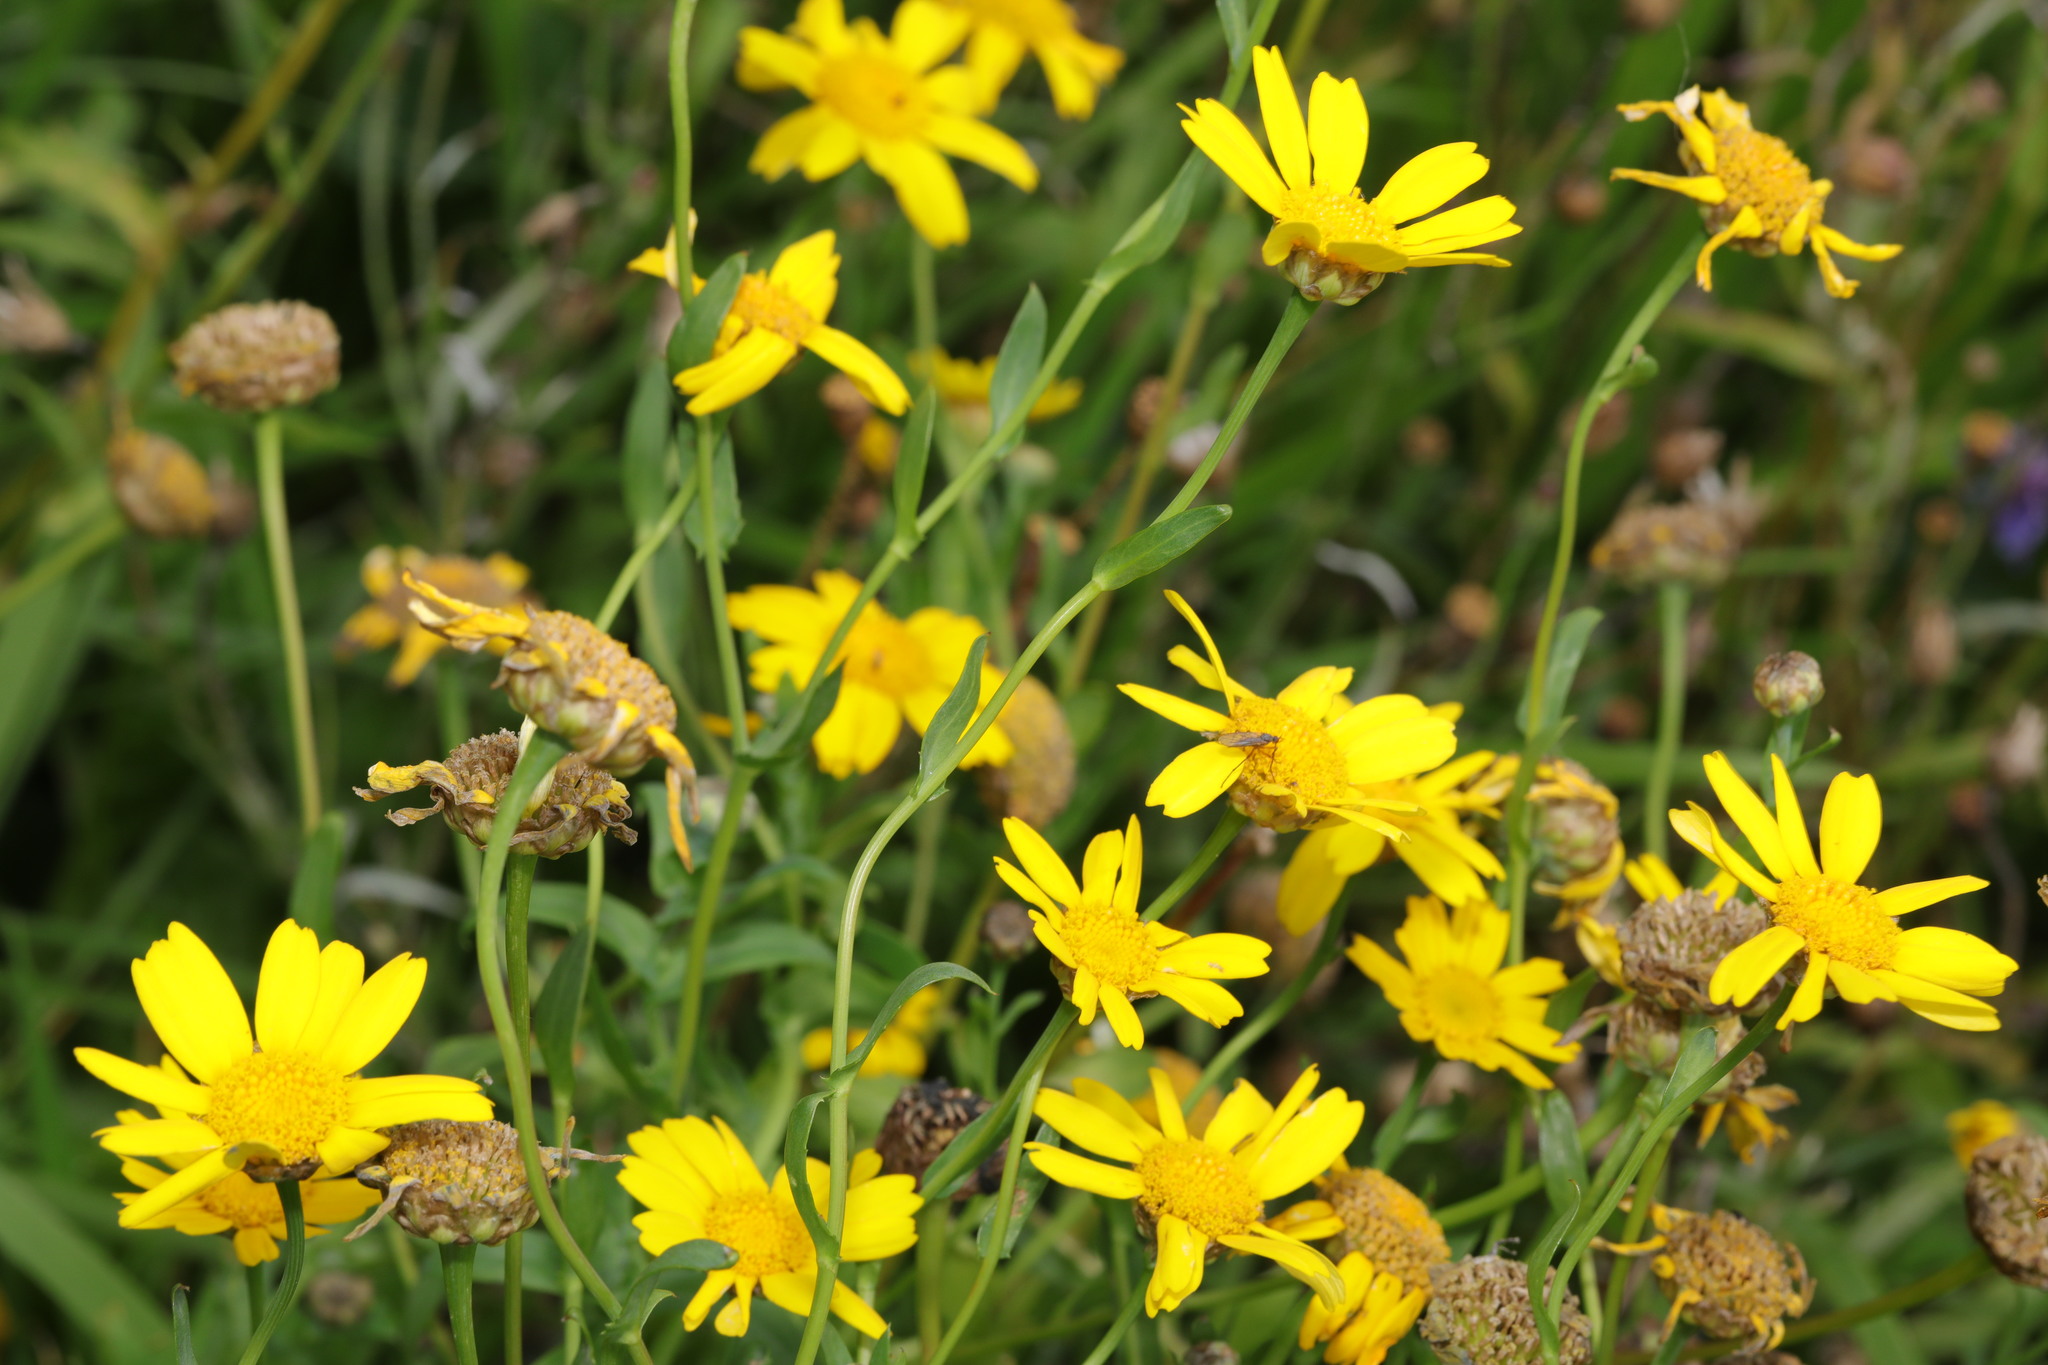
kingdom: Plantae
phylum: Tracheophyta
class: Magnoliopsida
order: Asterales
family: Asteraceae
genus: Glebionis
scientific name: Glebionis segetum
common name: Corndaisy
